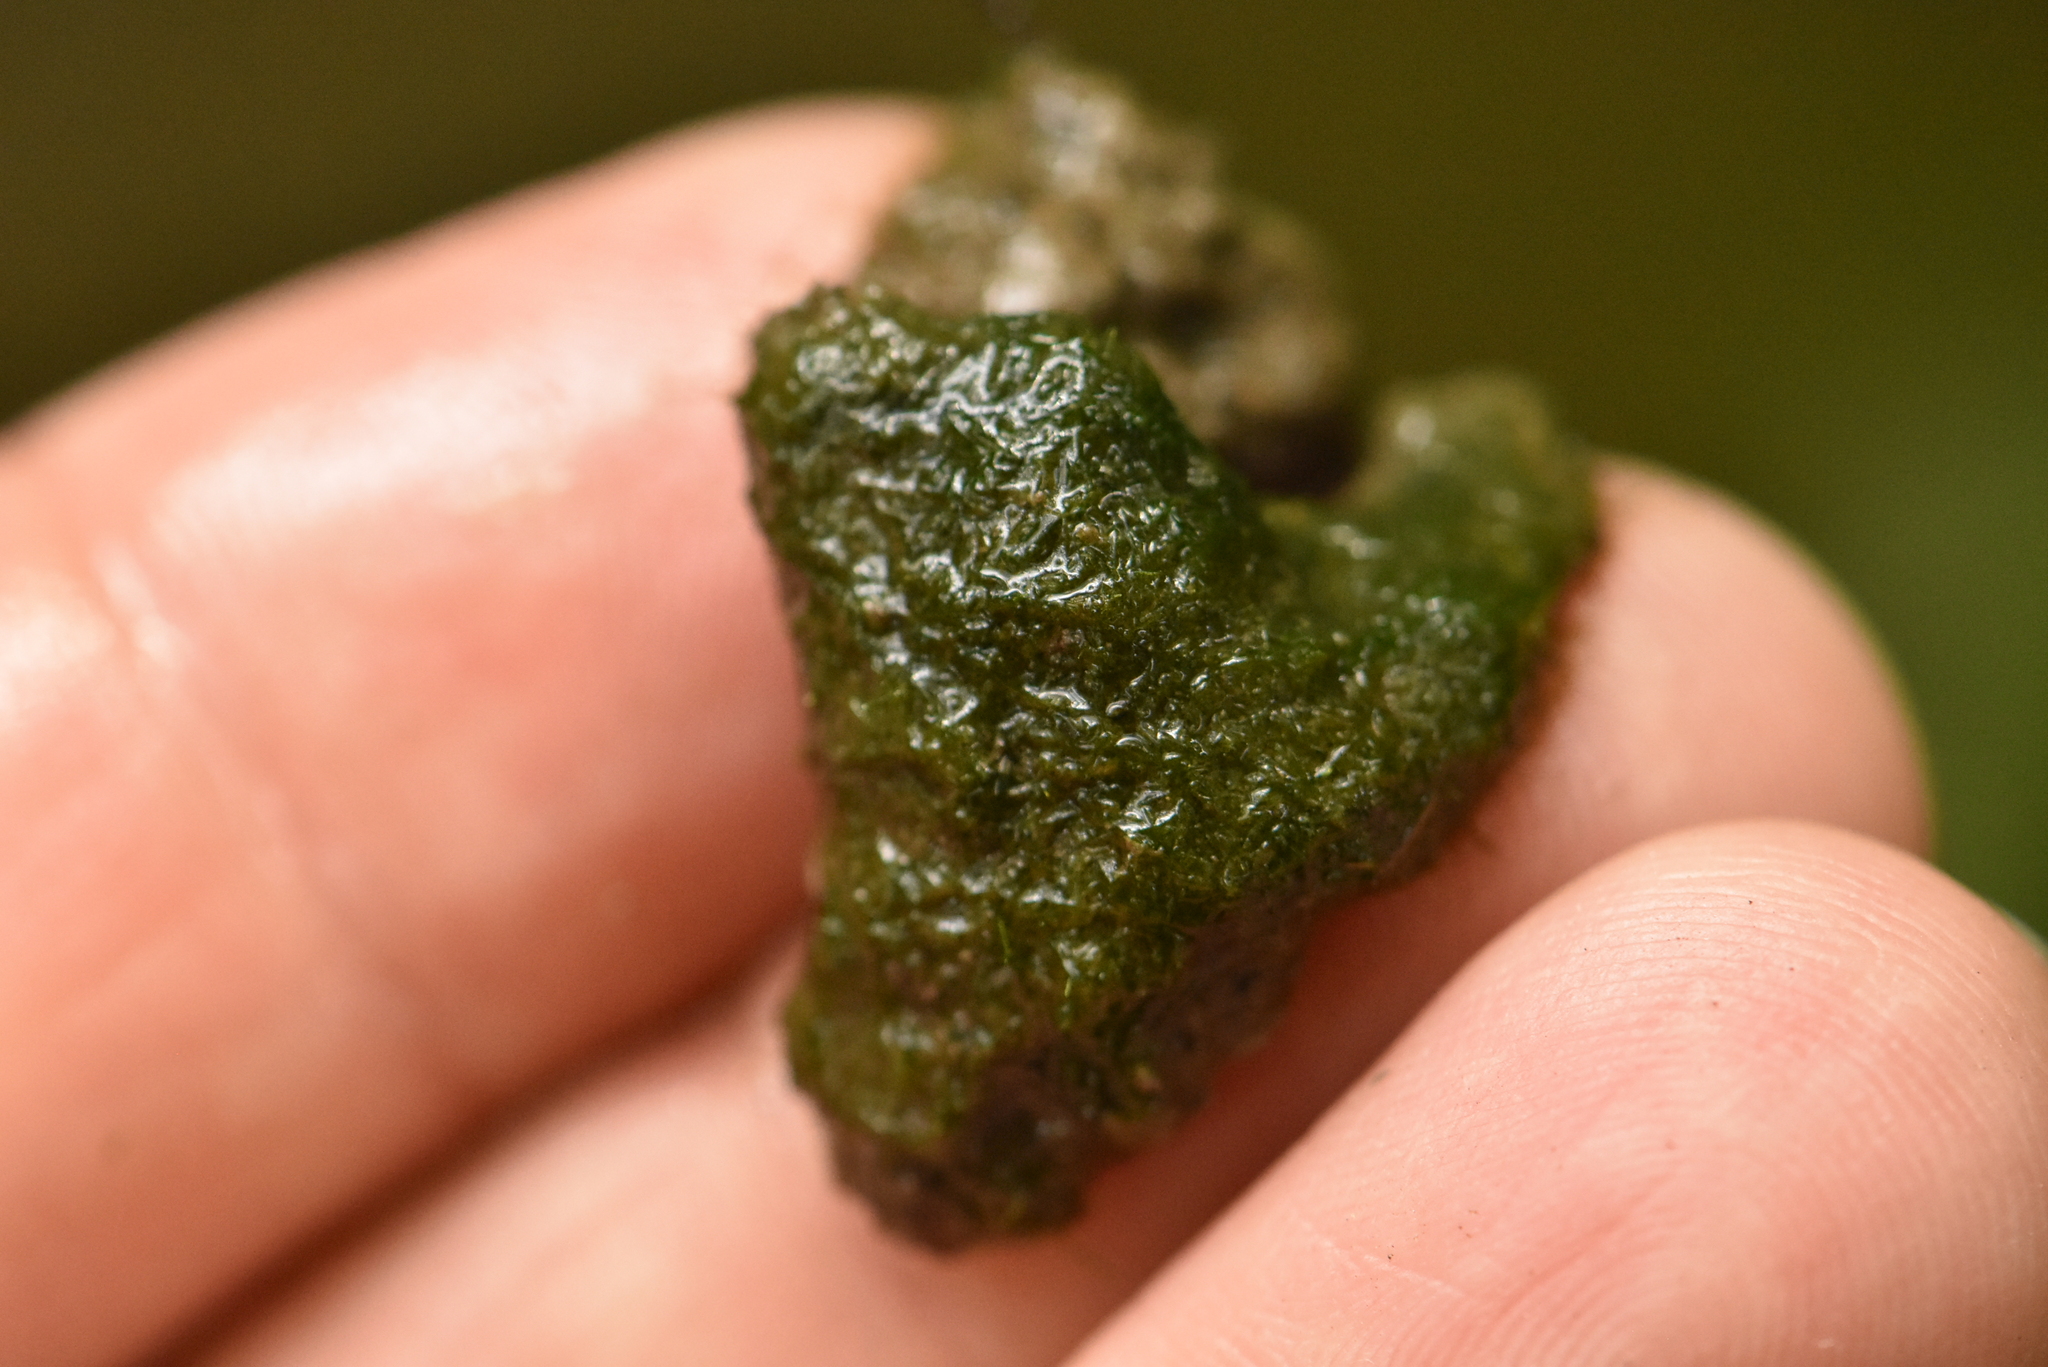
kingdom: Chromista
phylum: Ochrophyta
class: Xanthophyceae
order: Vaucheriales
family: Vaucheriaceae
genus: Vaucheria
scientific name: Vaucheria
